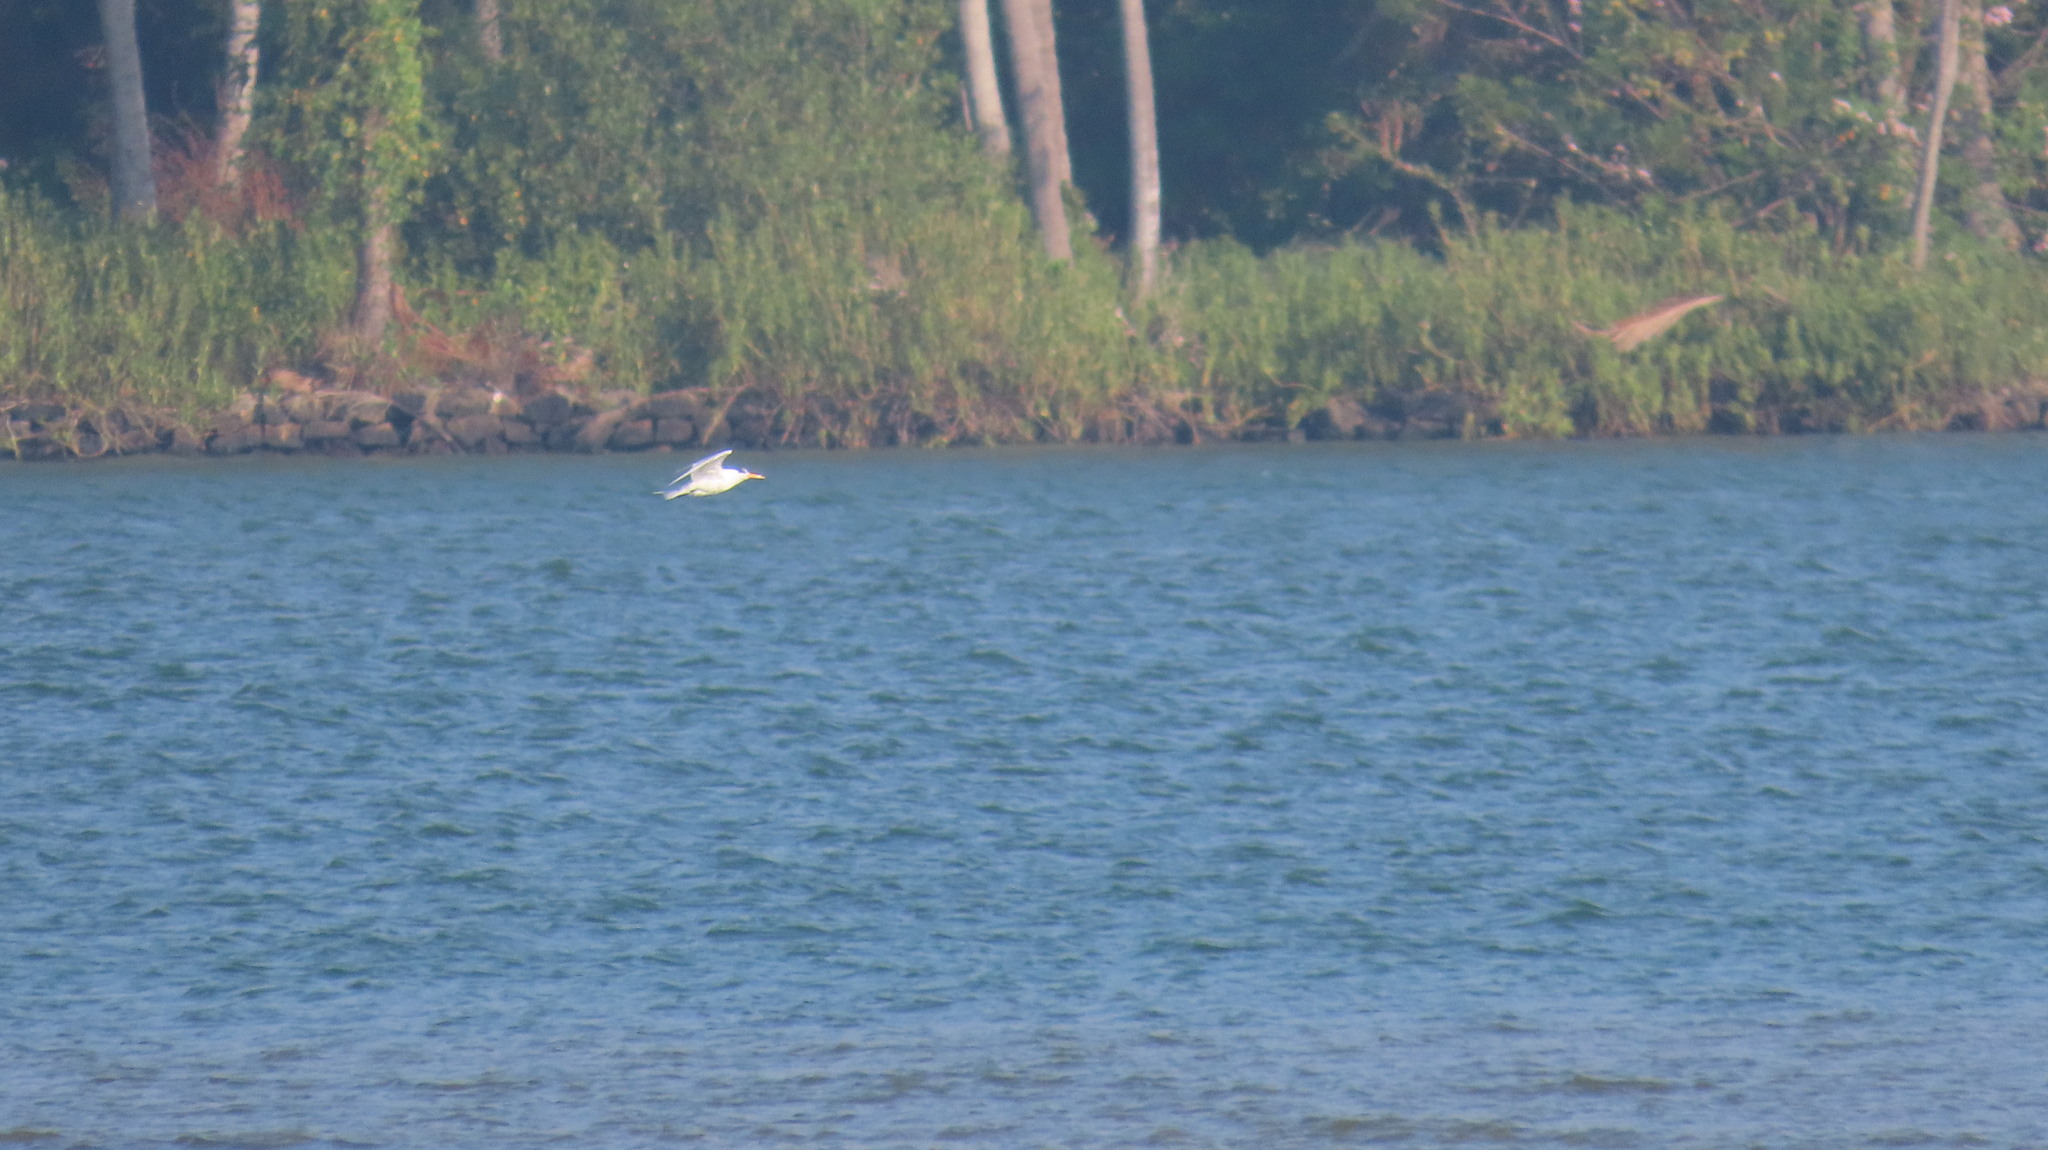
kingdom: Animalia
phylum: Chordata
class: Aves
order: Charadriiformes
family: Laridae
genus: Thalasseus
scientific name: Thalasseus bengalensis
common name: Lesser crested tern
